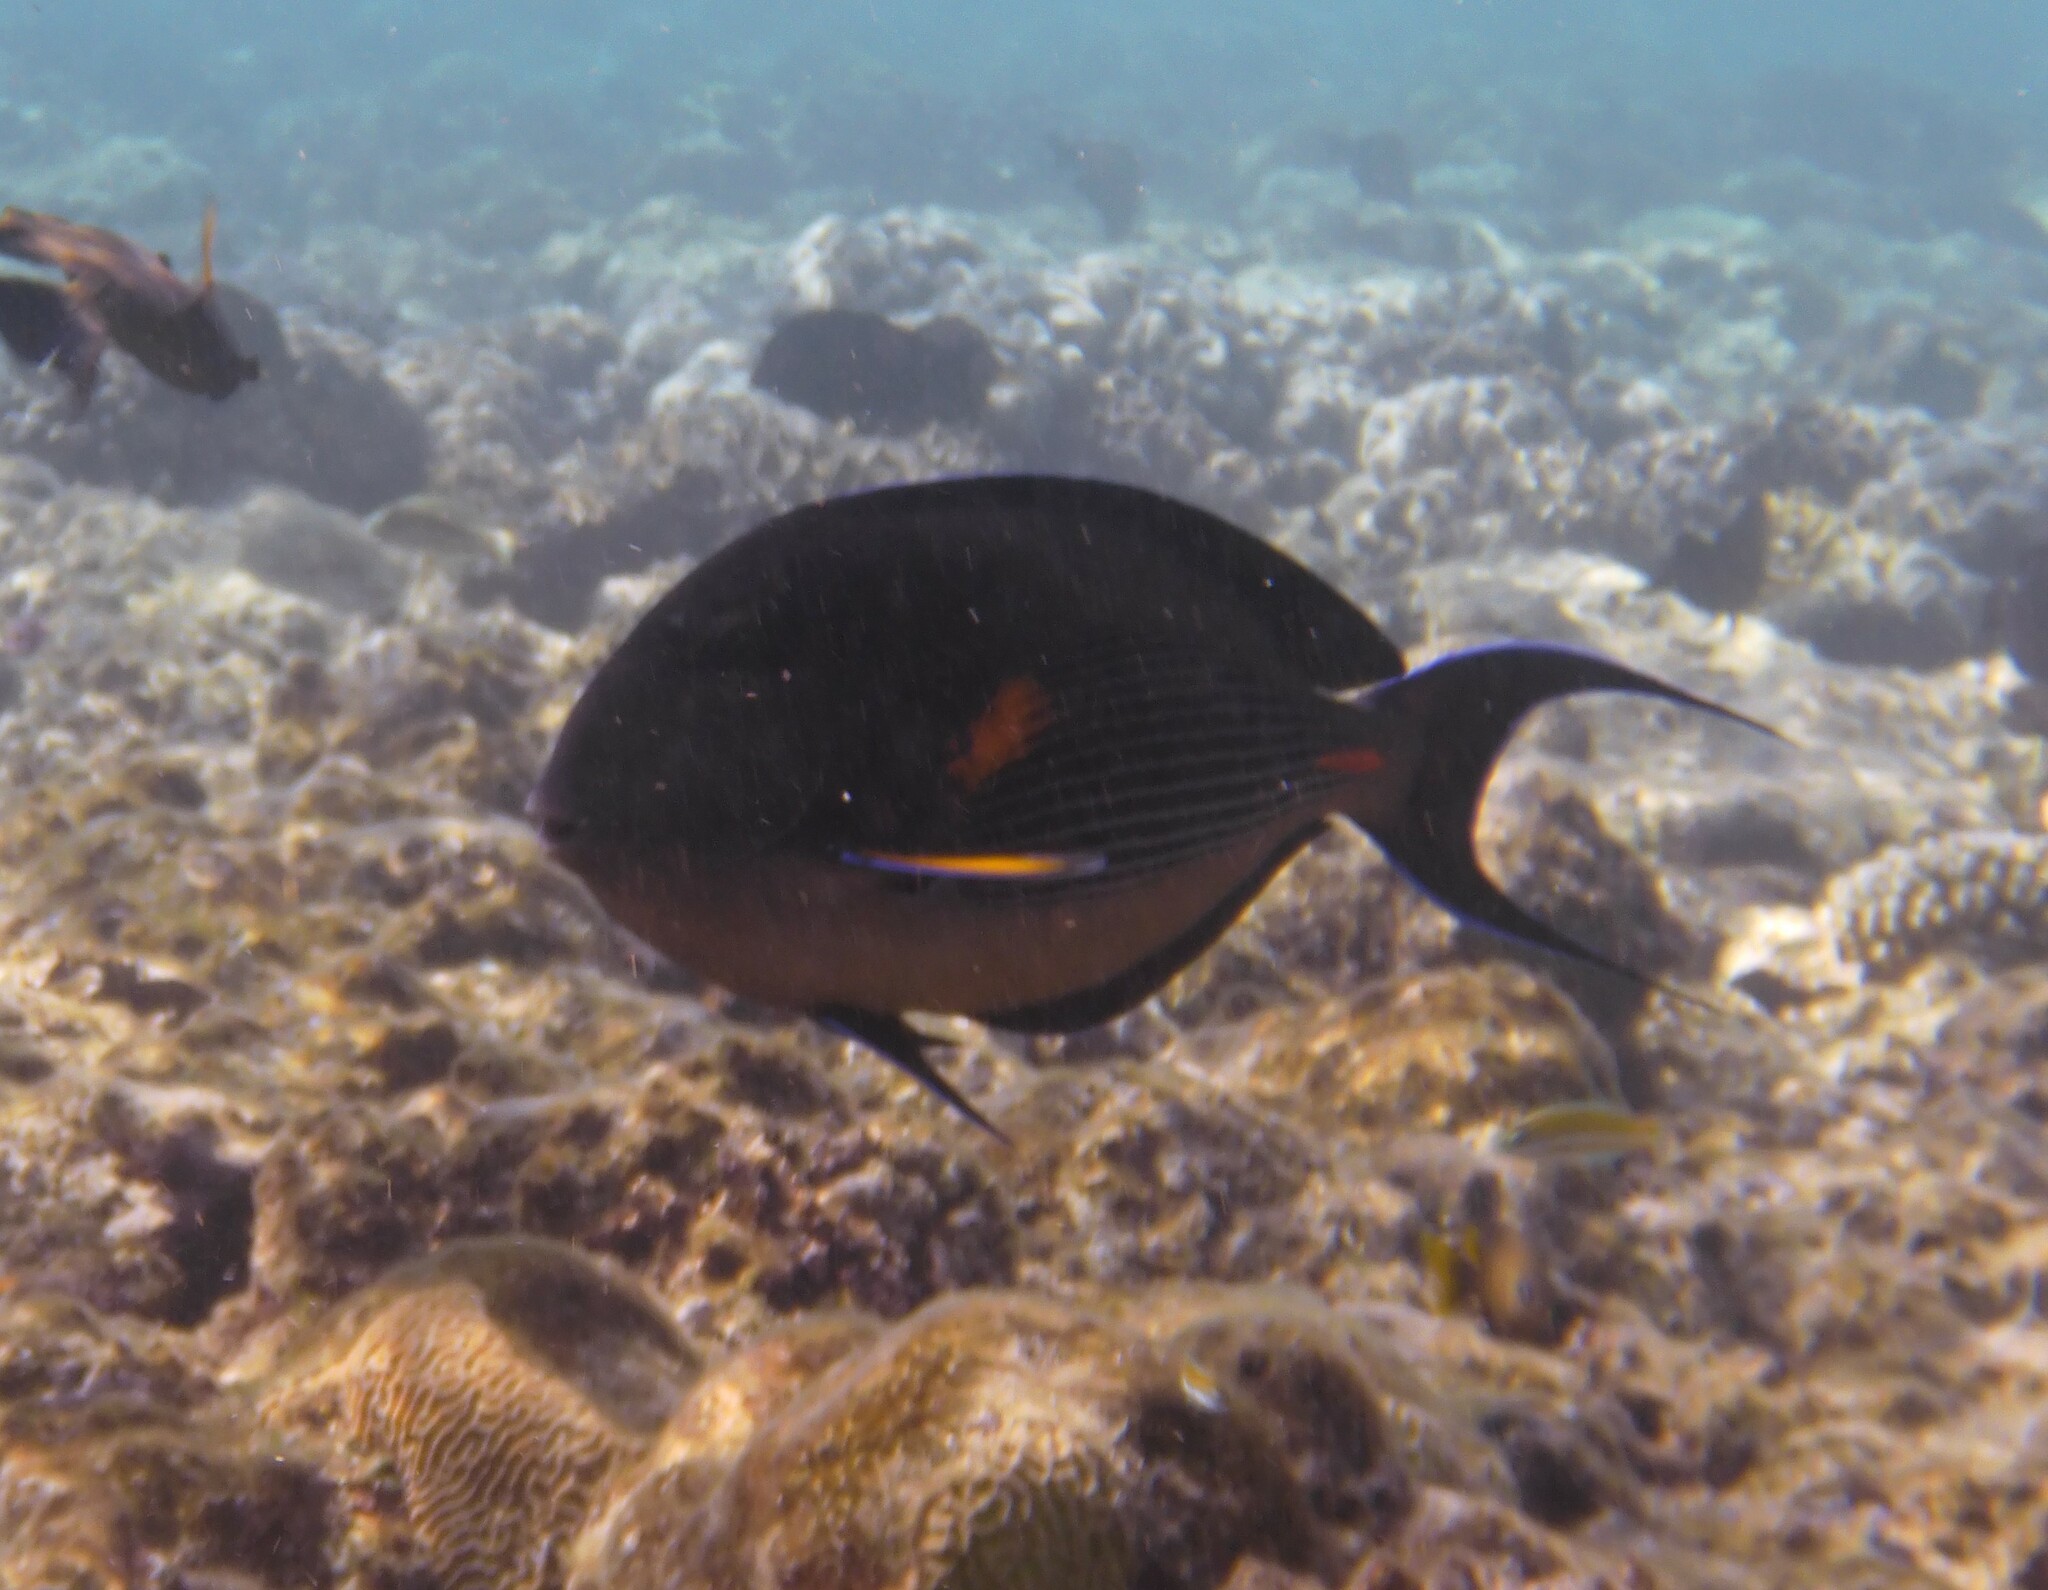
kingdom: Animalia
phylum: Chordata
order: Perciformes
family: Acanthuridae
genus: Acanthurus
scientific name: Acanthurus sohal
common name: Red sea surgeonfish
